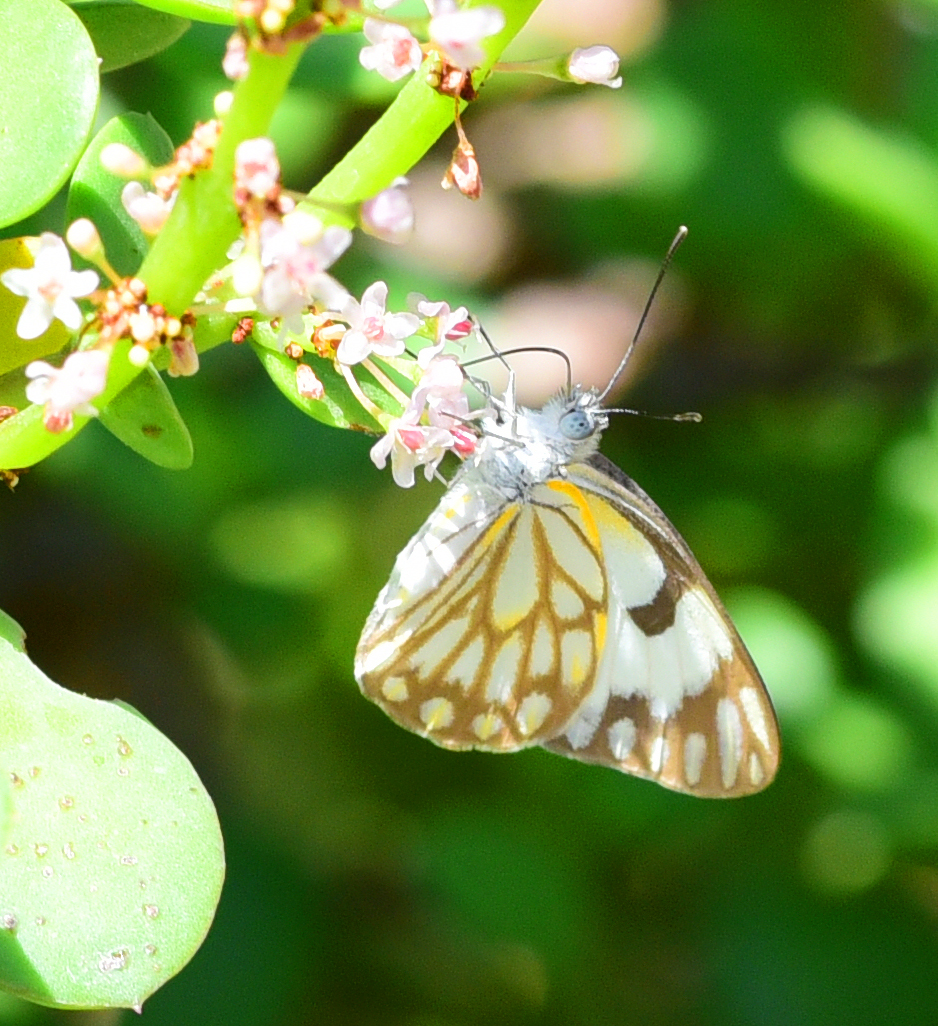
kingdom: Animalia
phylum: Arthropoda
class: Insecta
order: Lepidoptera
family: Pieridae
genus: Belenois
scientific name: Belenois aurota
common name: Brown-veined white
